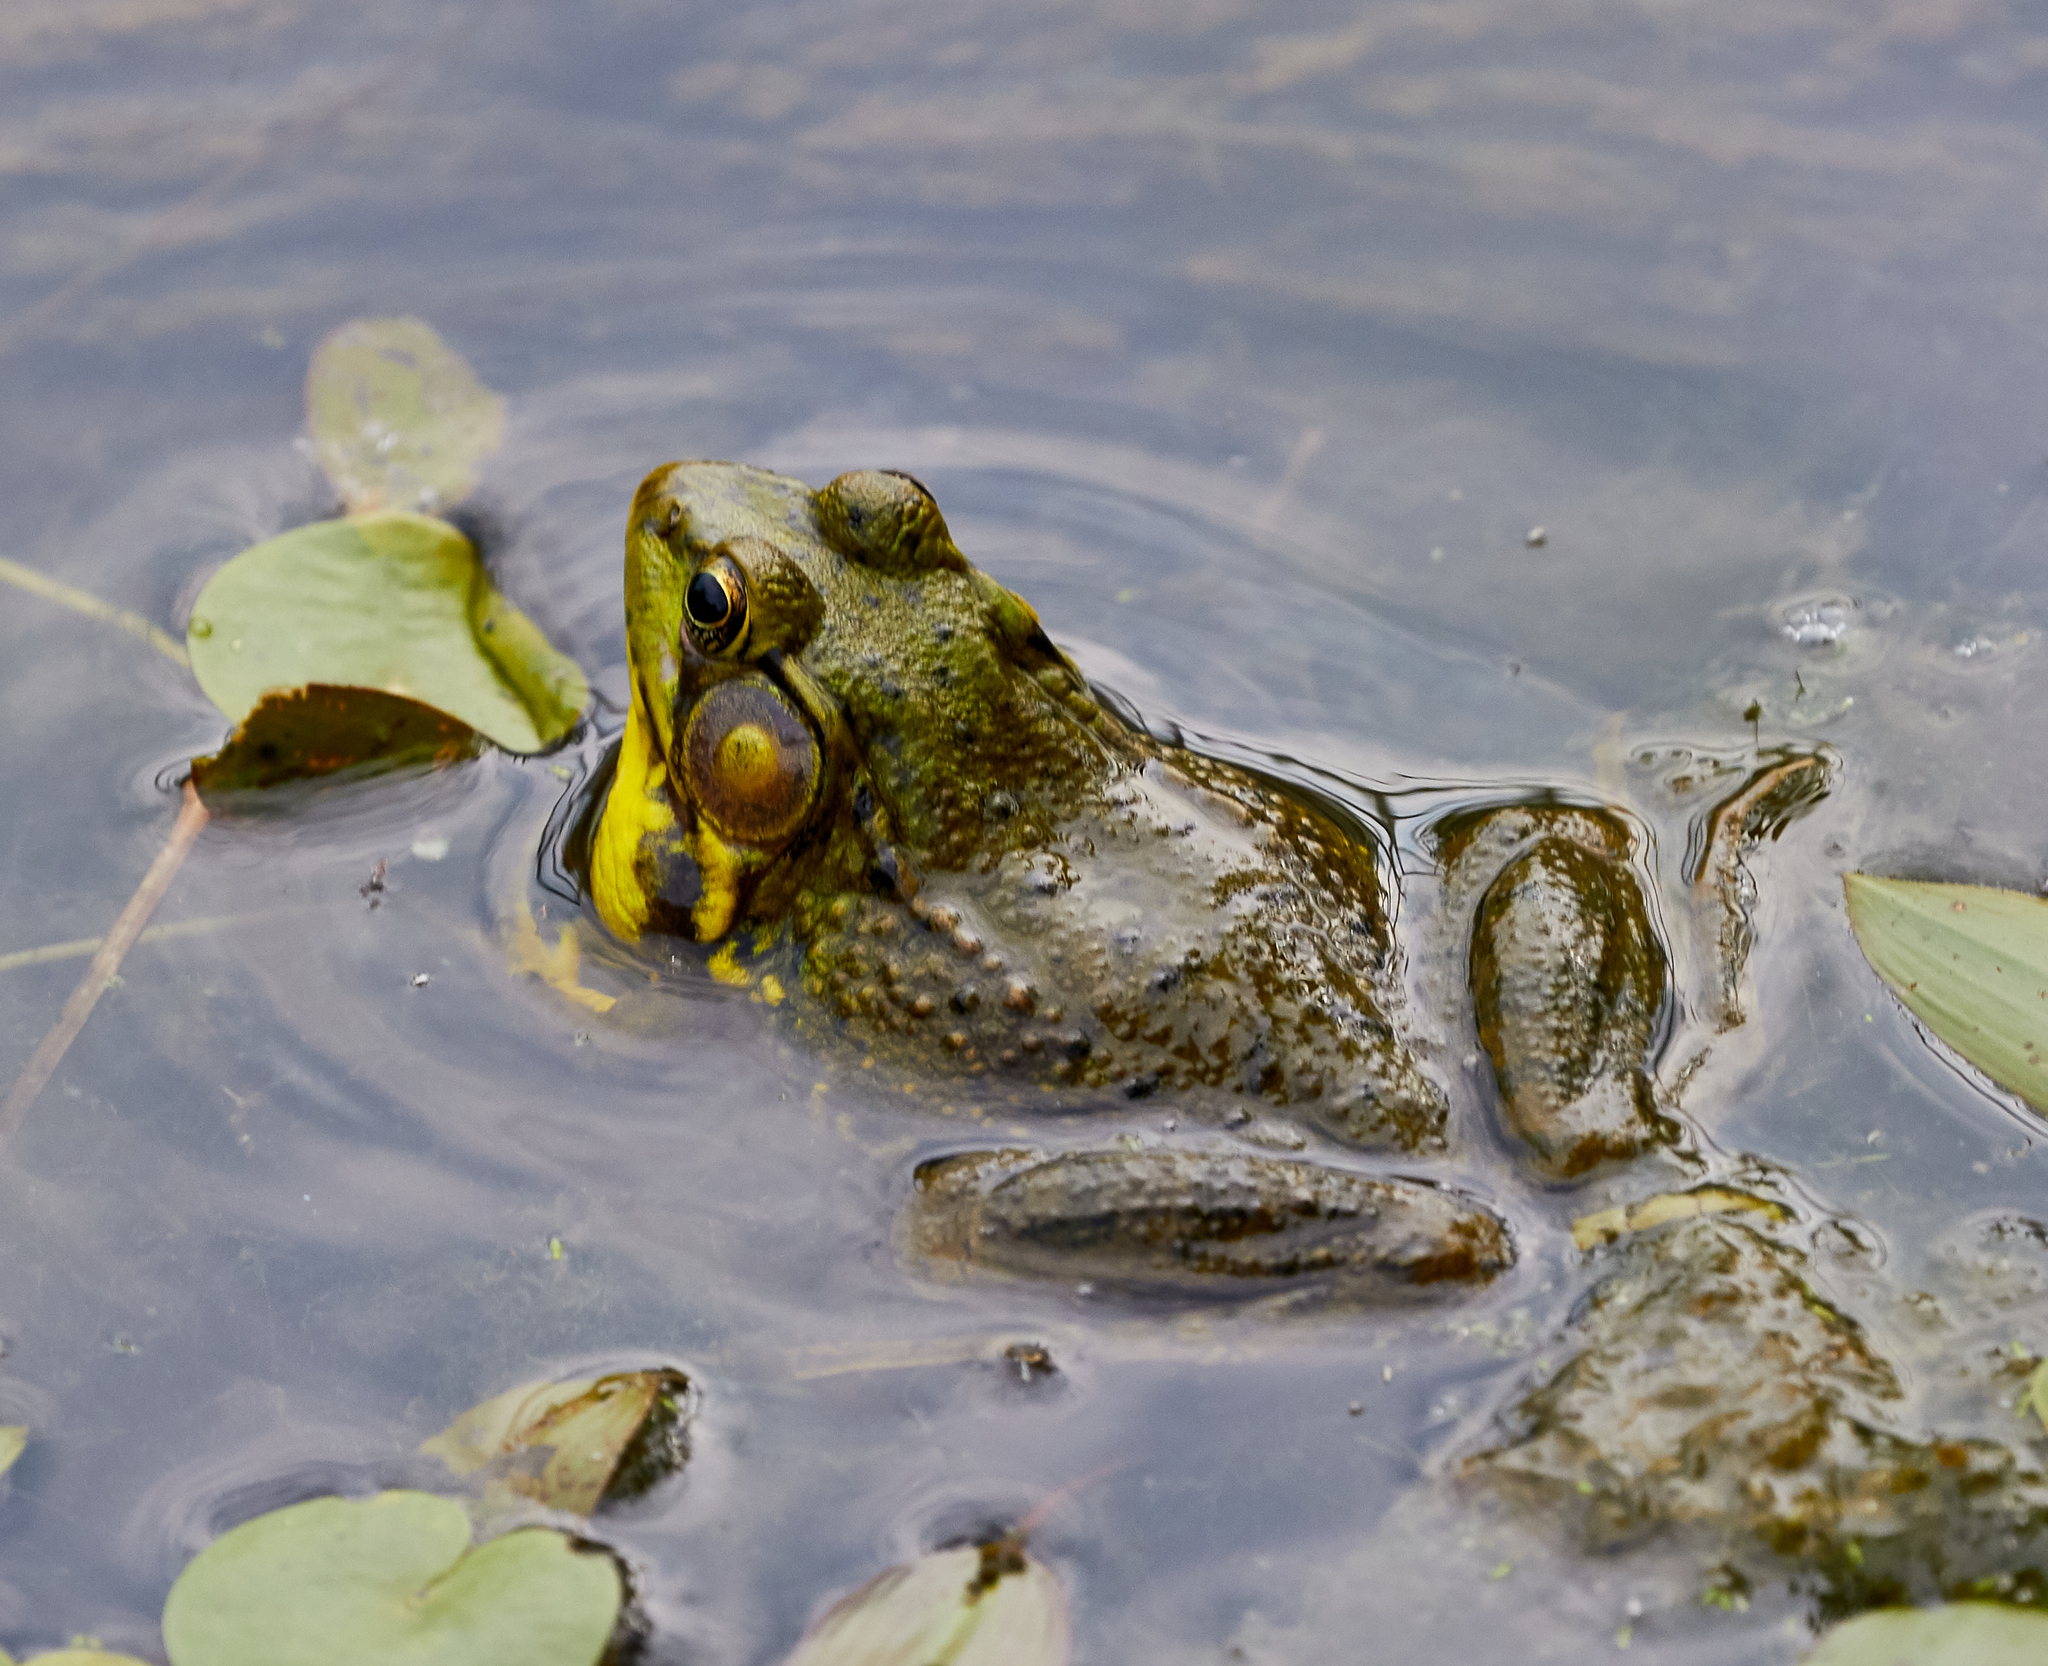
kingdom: Animalia
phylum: Chordata
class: Amphibia
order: Anura
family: Ranidae
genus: Lithobates
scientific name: Lithobates clamitans
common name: Green frog
